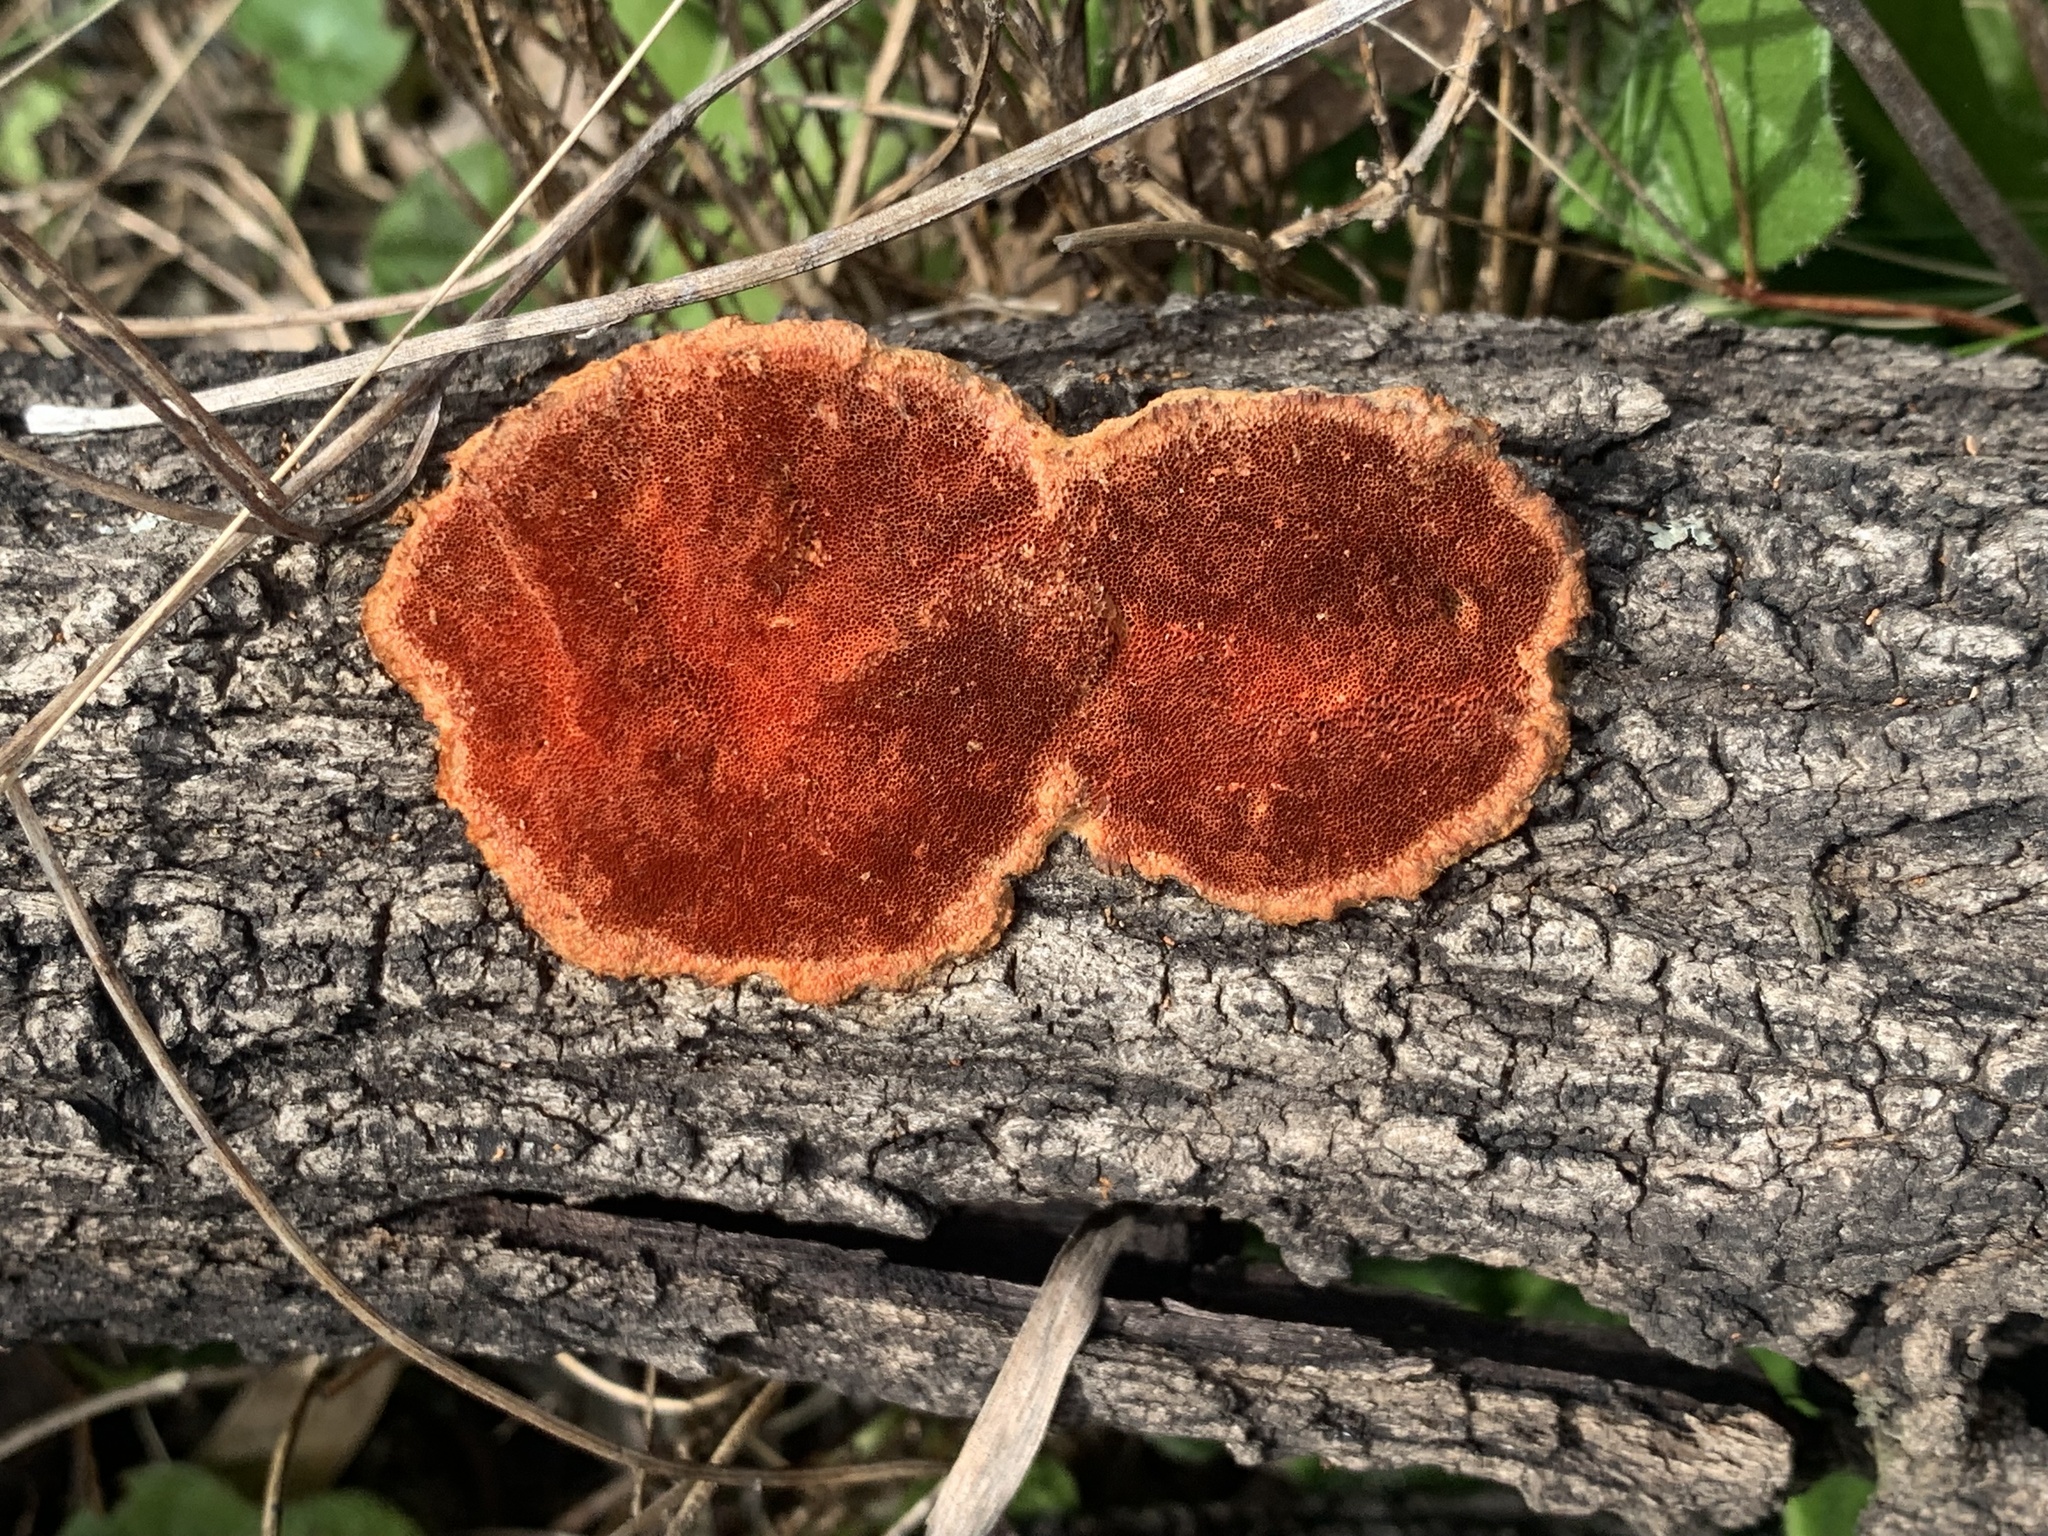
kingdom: Fungi
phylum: Basidiomycota
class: Agaricomycetes
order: Polyporales
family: Polyporaceae
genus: Trametes
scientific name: Trametes coccinea
